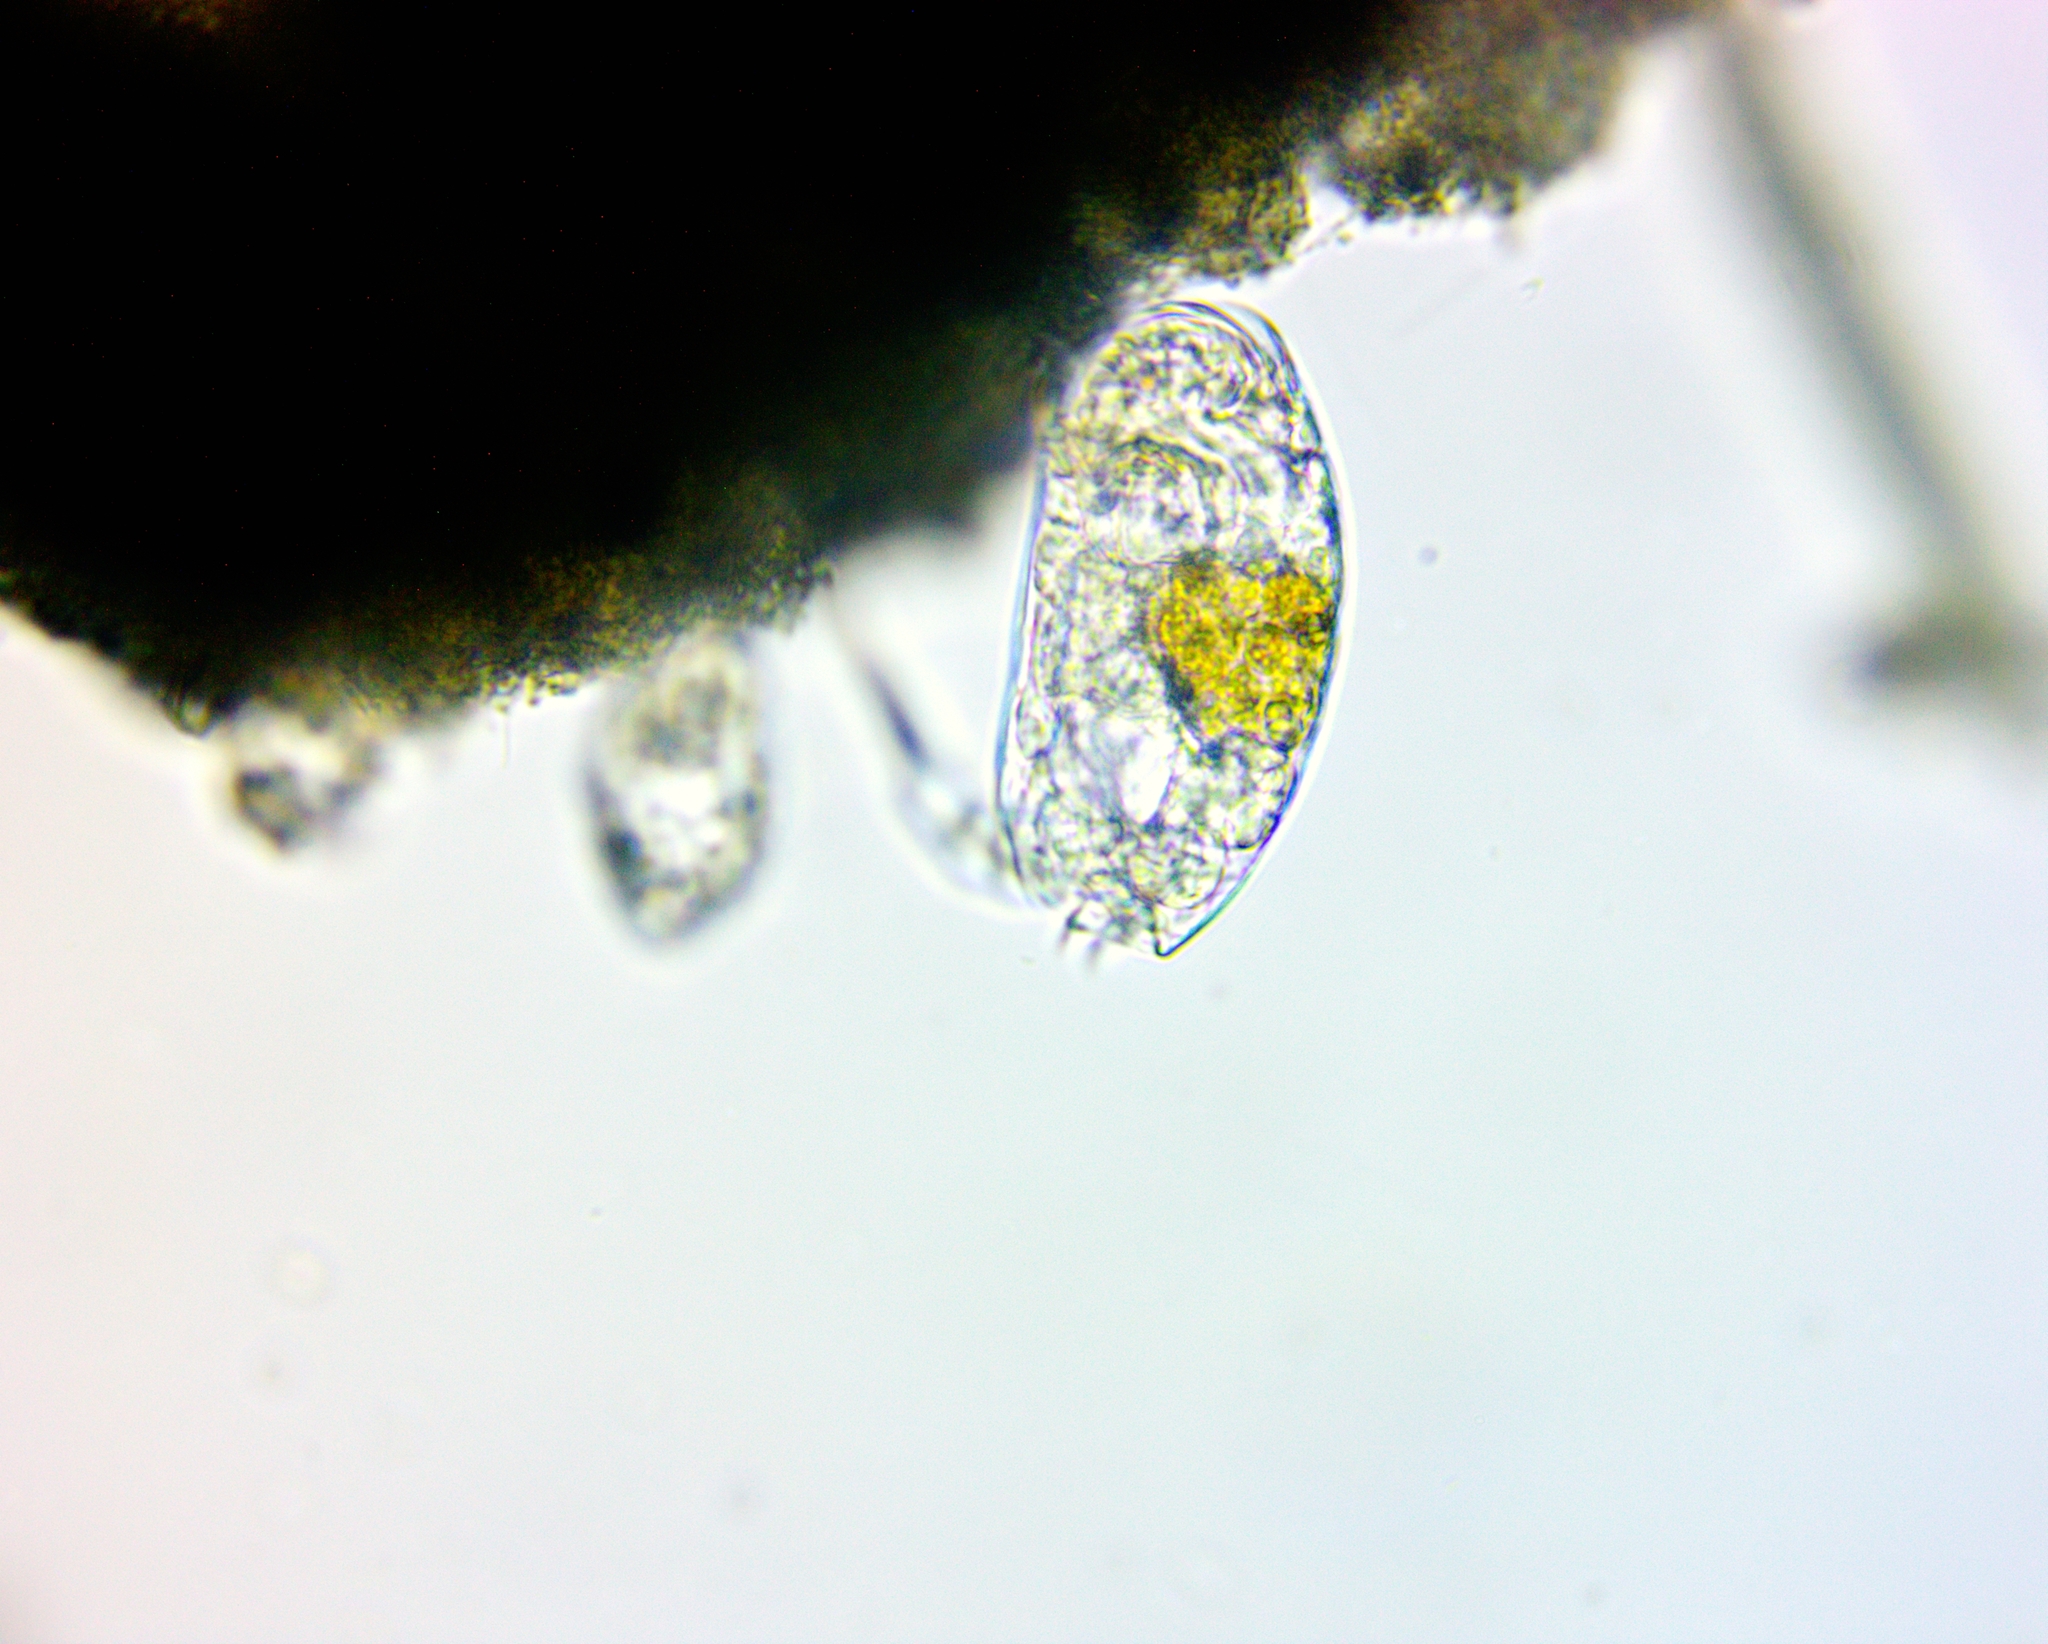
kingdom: Animalia
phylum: Rotifera
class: Eurotatoria
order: Ploima
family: Lepadellidae
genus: Colurella
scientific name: Colurella dicentra
